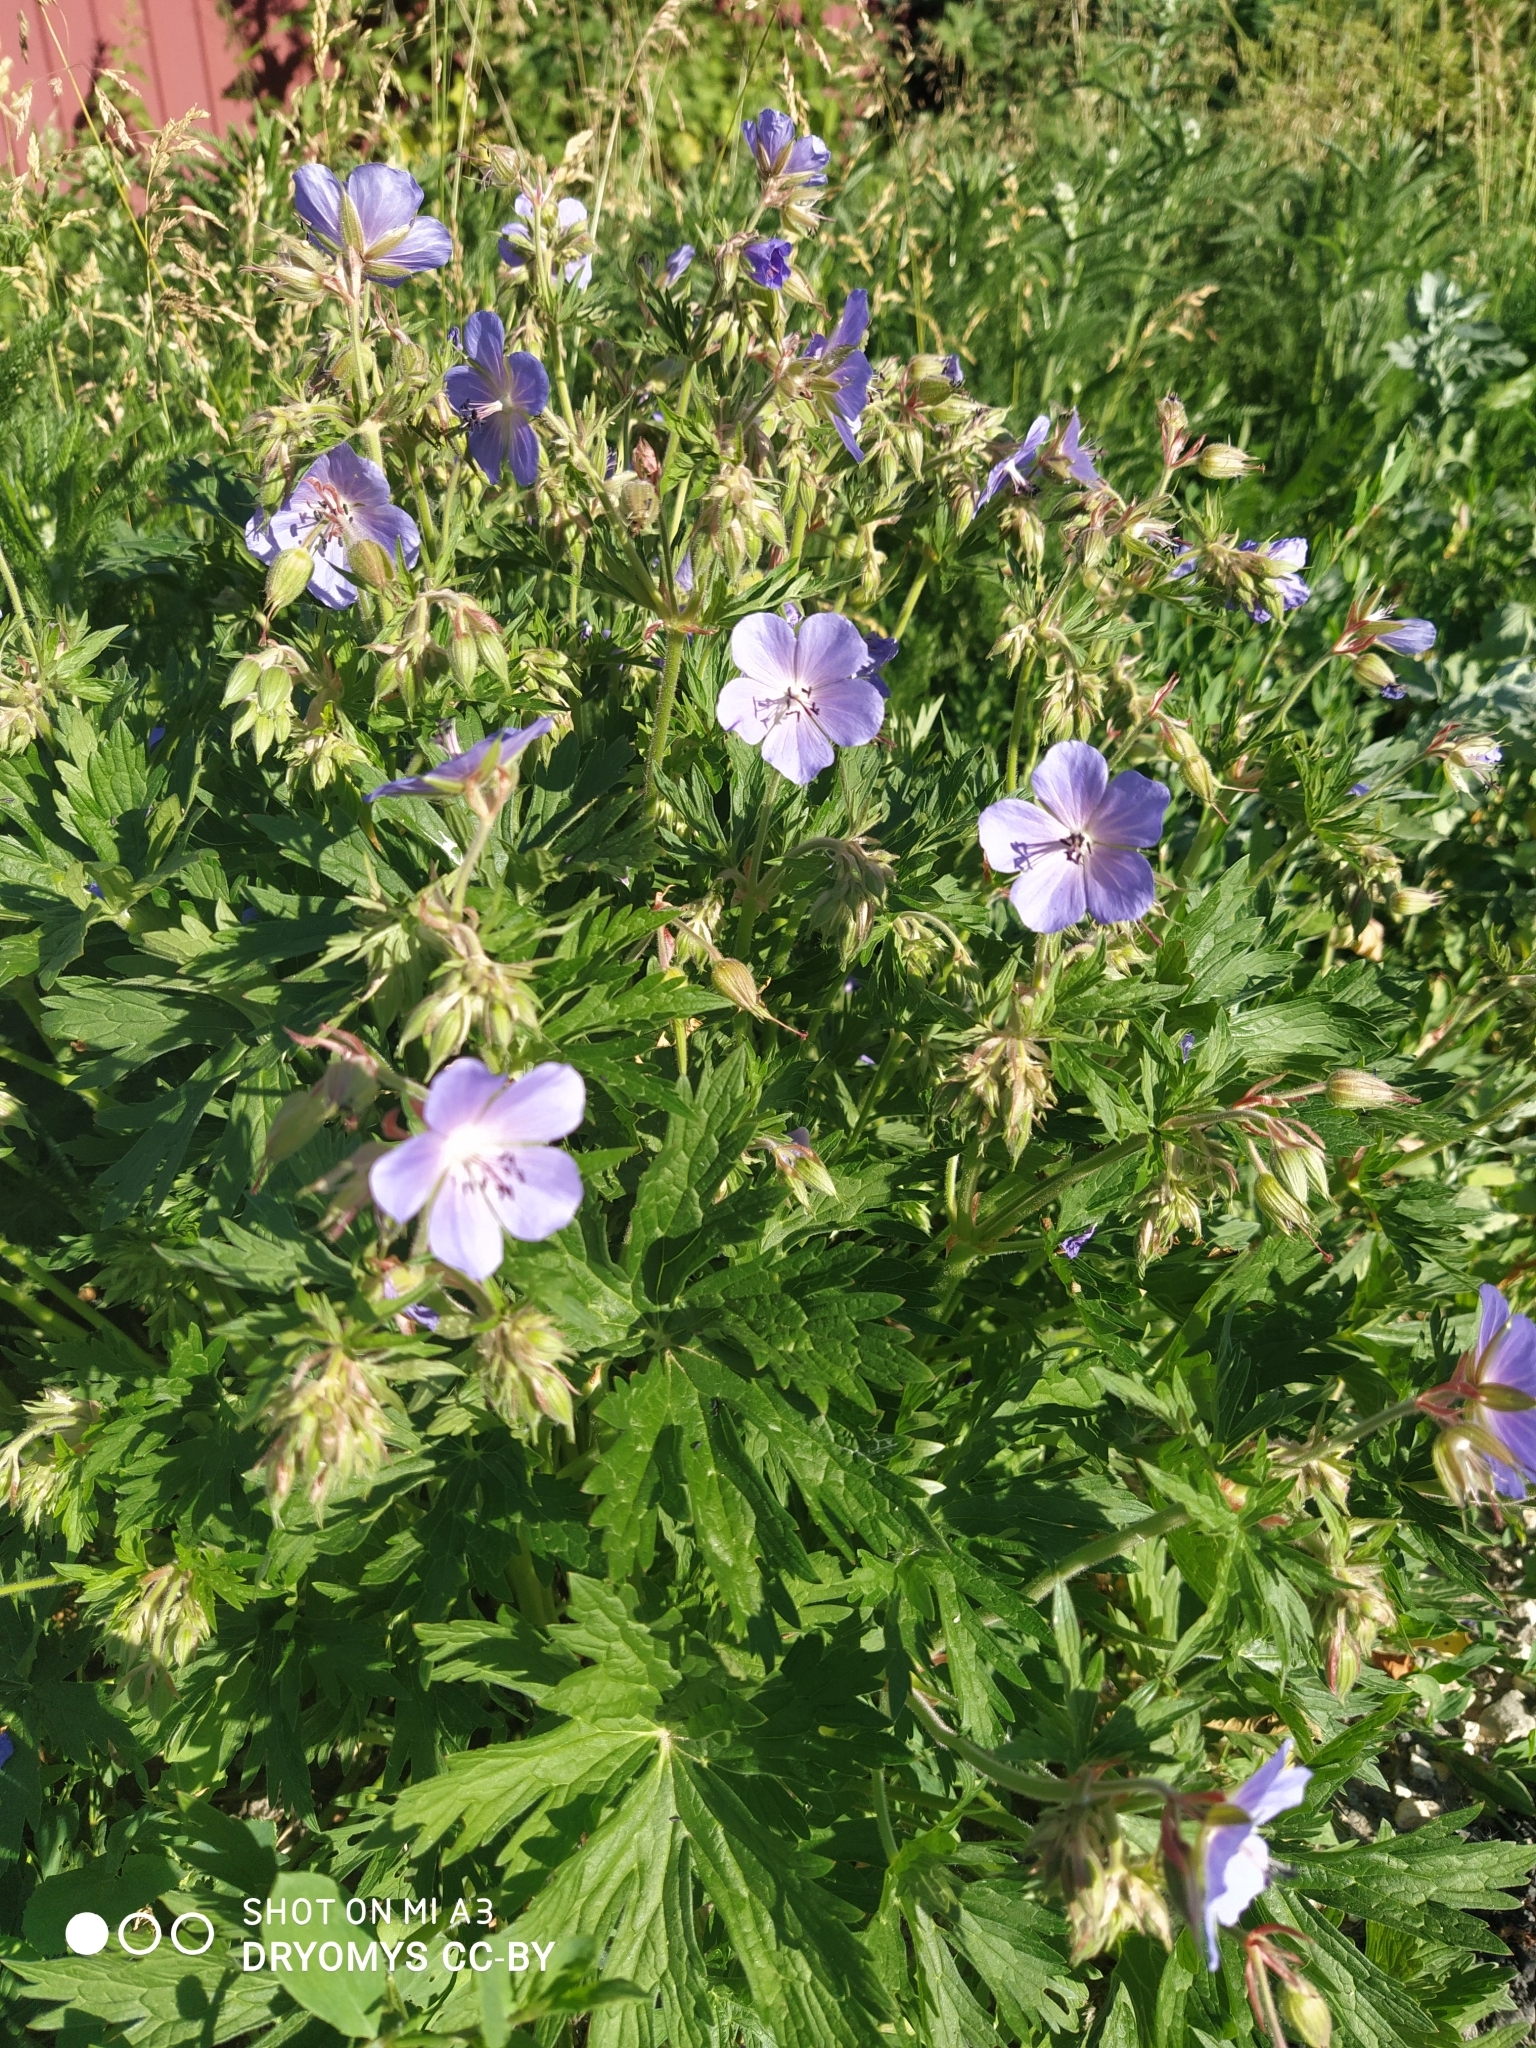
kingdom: Plantae
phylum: Tracheophyta
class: Magnoliopsida
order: Geraniales
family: Geraniaceae
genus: Geranium
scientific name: Geranium pratense
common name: Meadow crane's-bill
